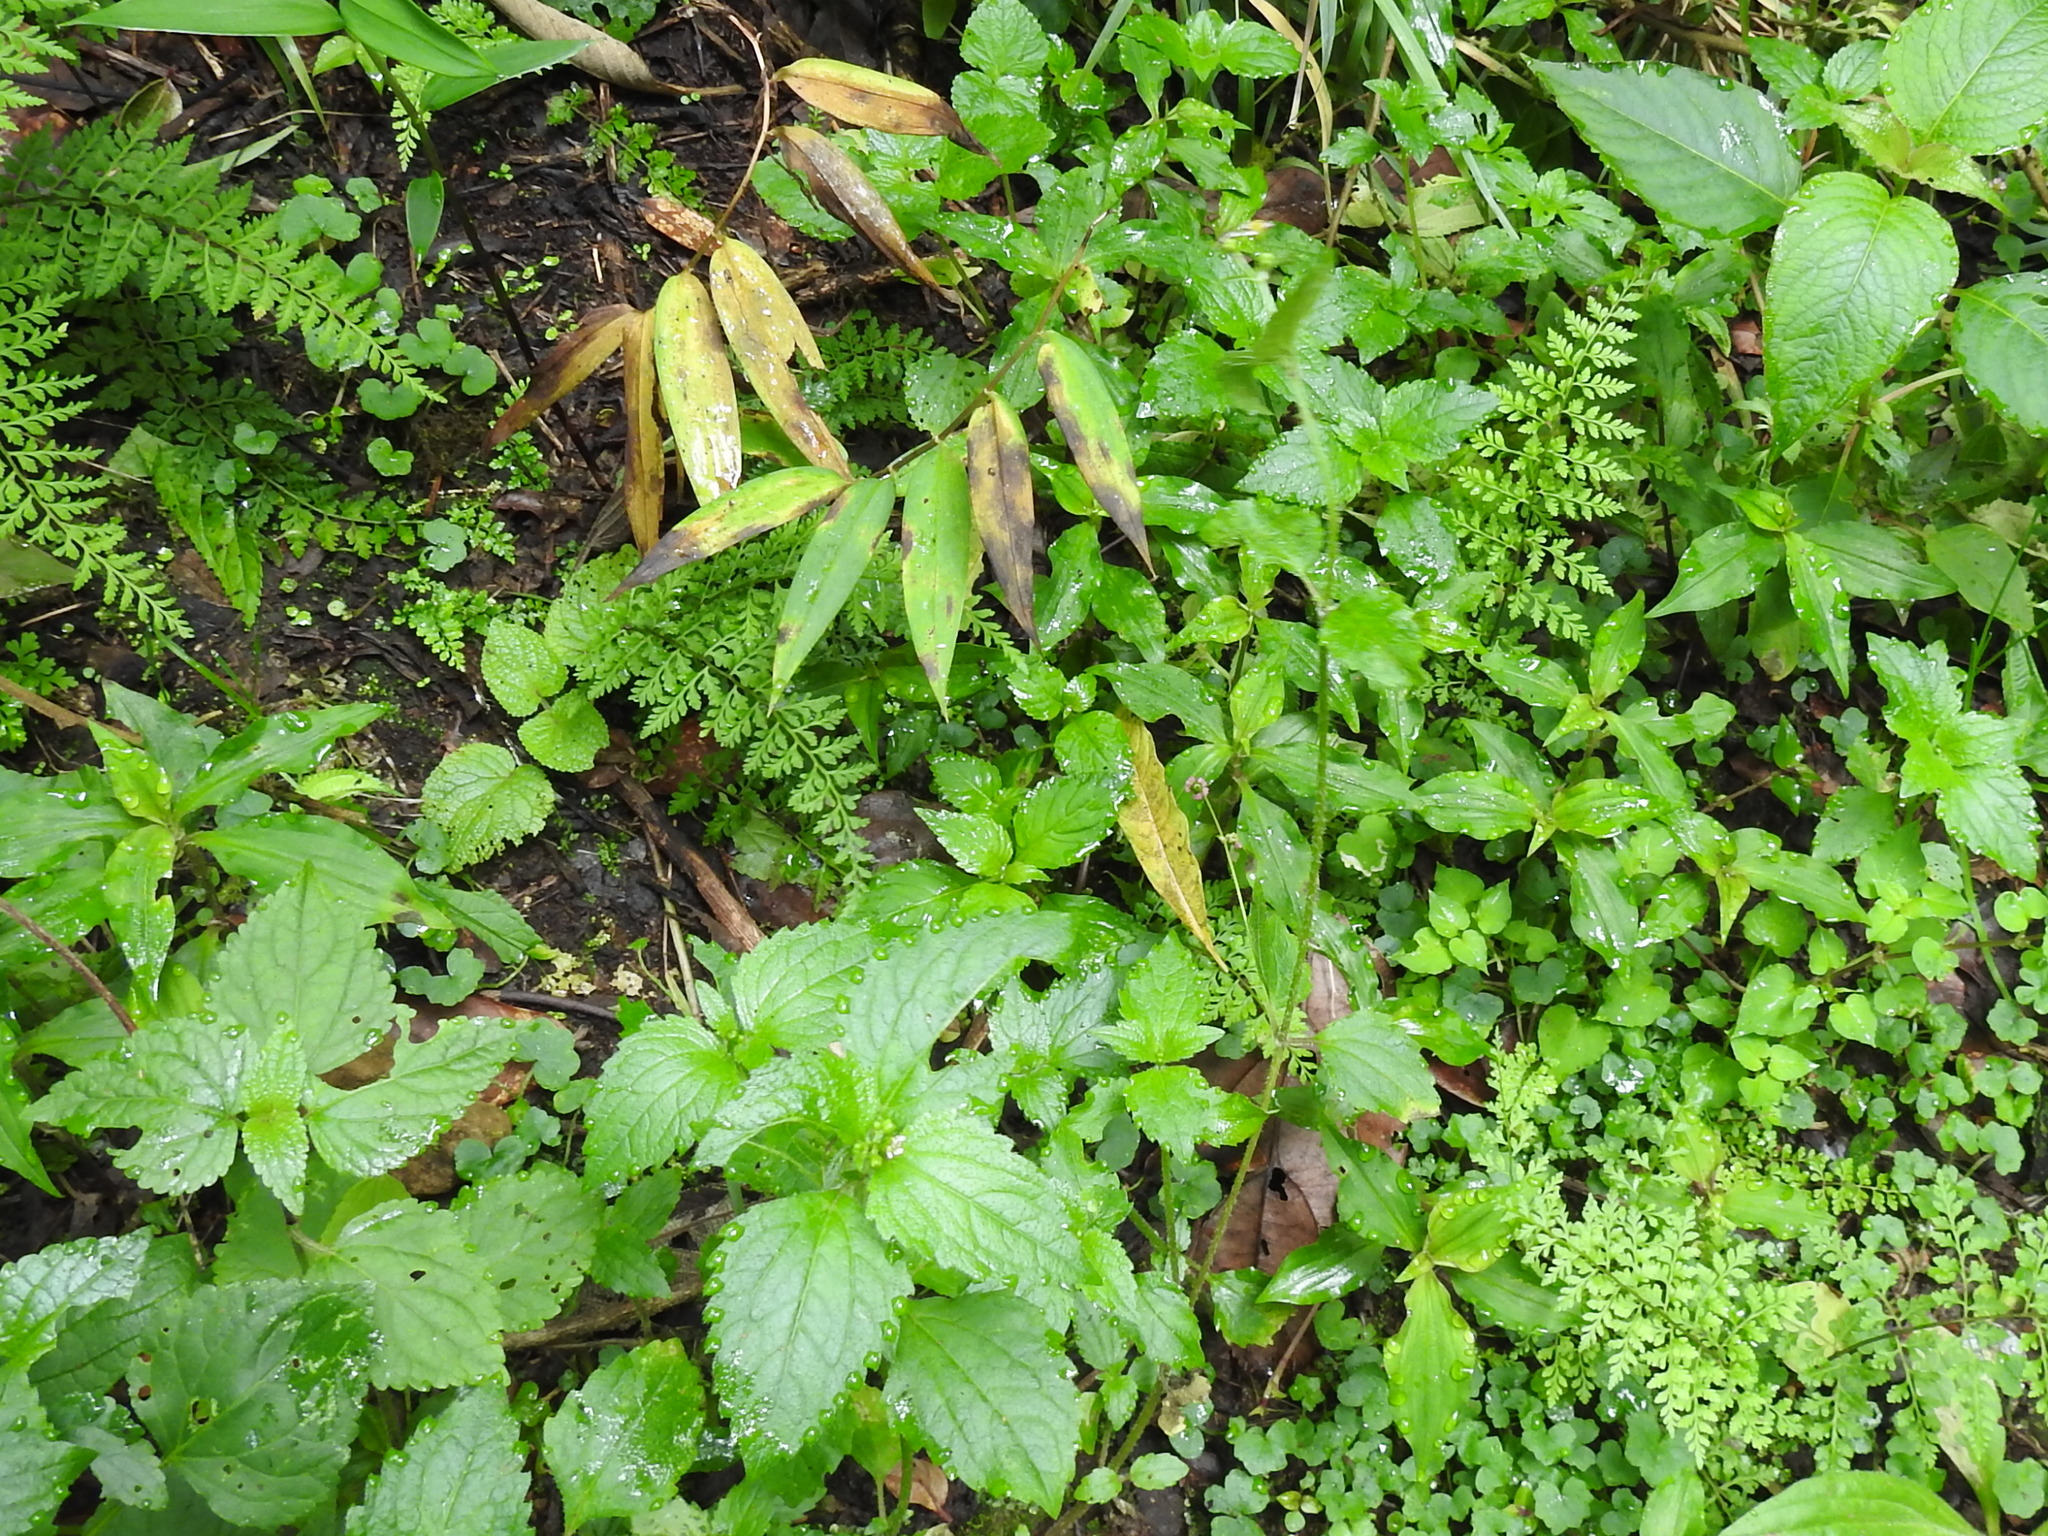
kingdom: Plantae
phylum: Tracheophyta
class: Magnoliopsida
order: Asterales
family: Asteraceae
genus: Galinsoga
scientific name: Galinsoga quadriradiata
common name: Shaggy soldier
